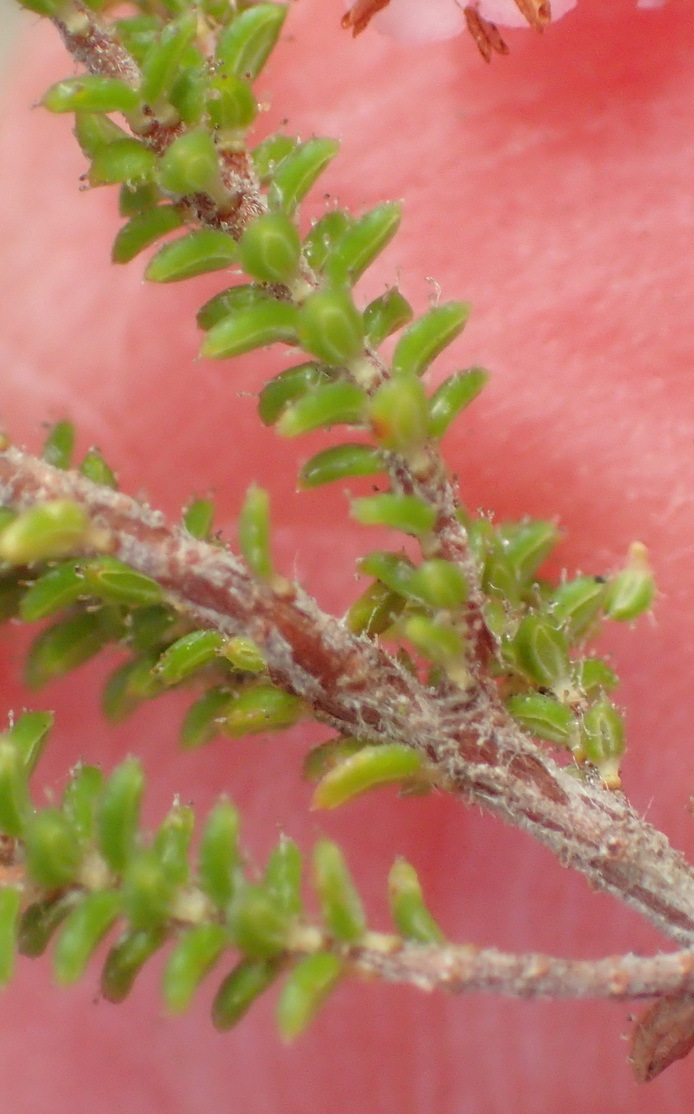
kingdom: Plantae
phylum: Tracheophyta
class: Magnoliopsida
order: Ericales
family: Ericaceae
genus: Erica
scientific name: Erica brachycentra
